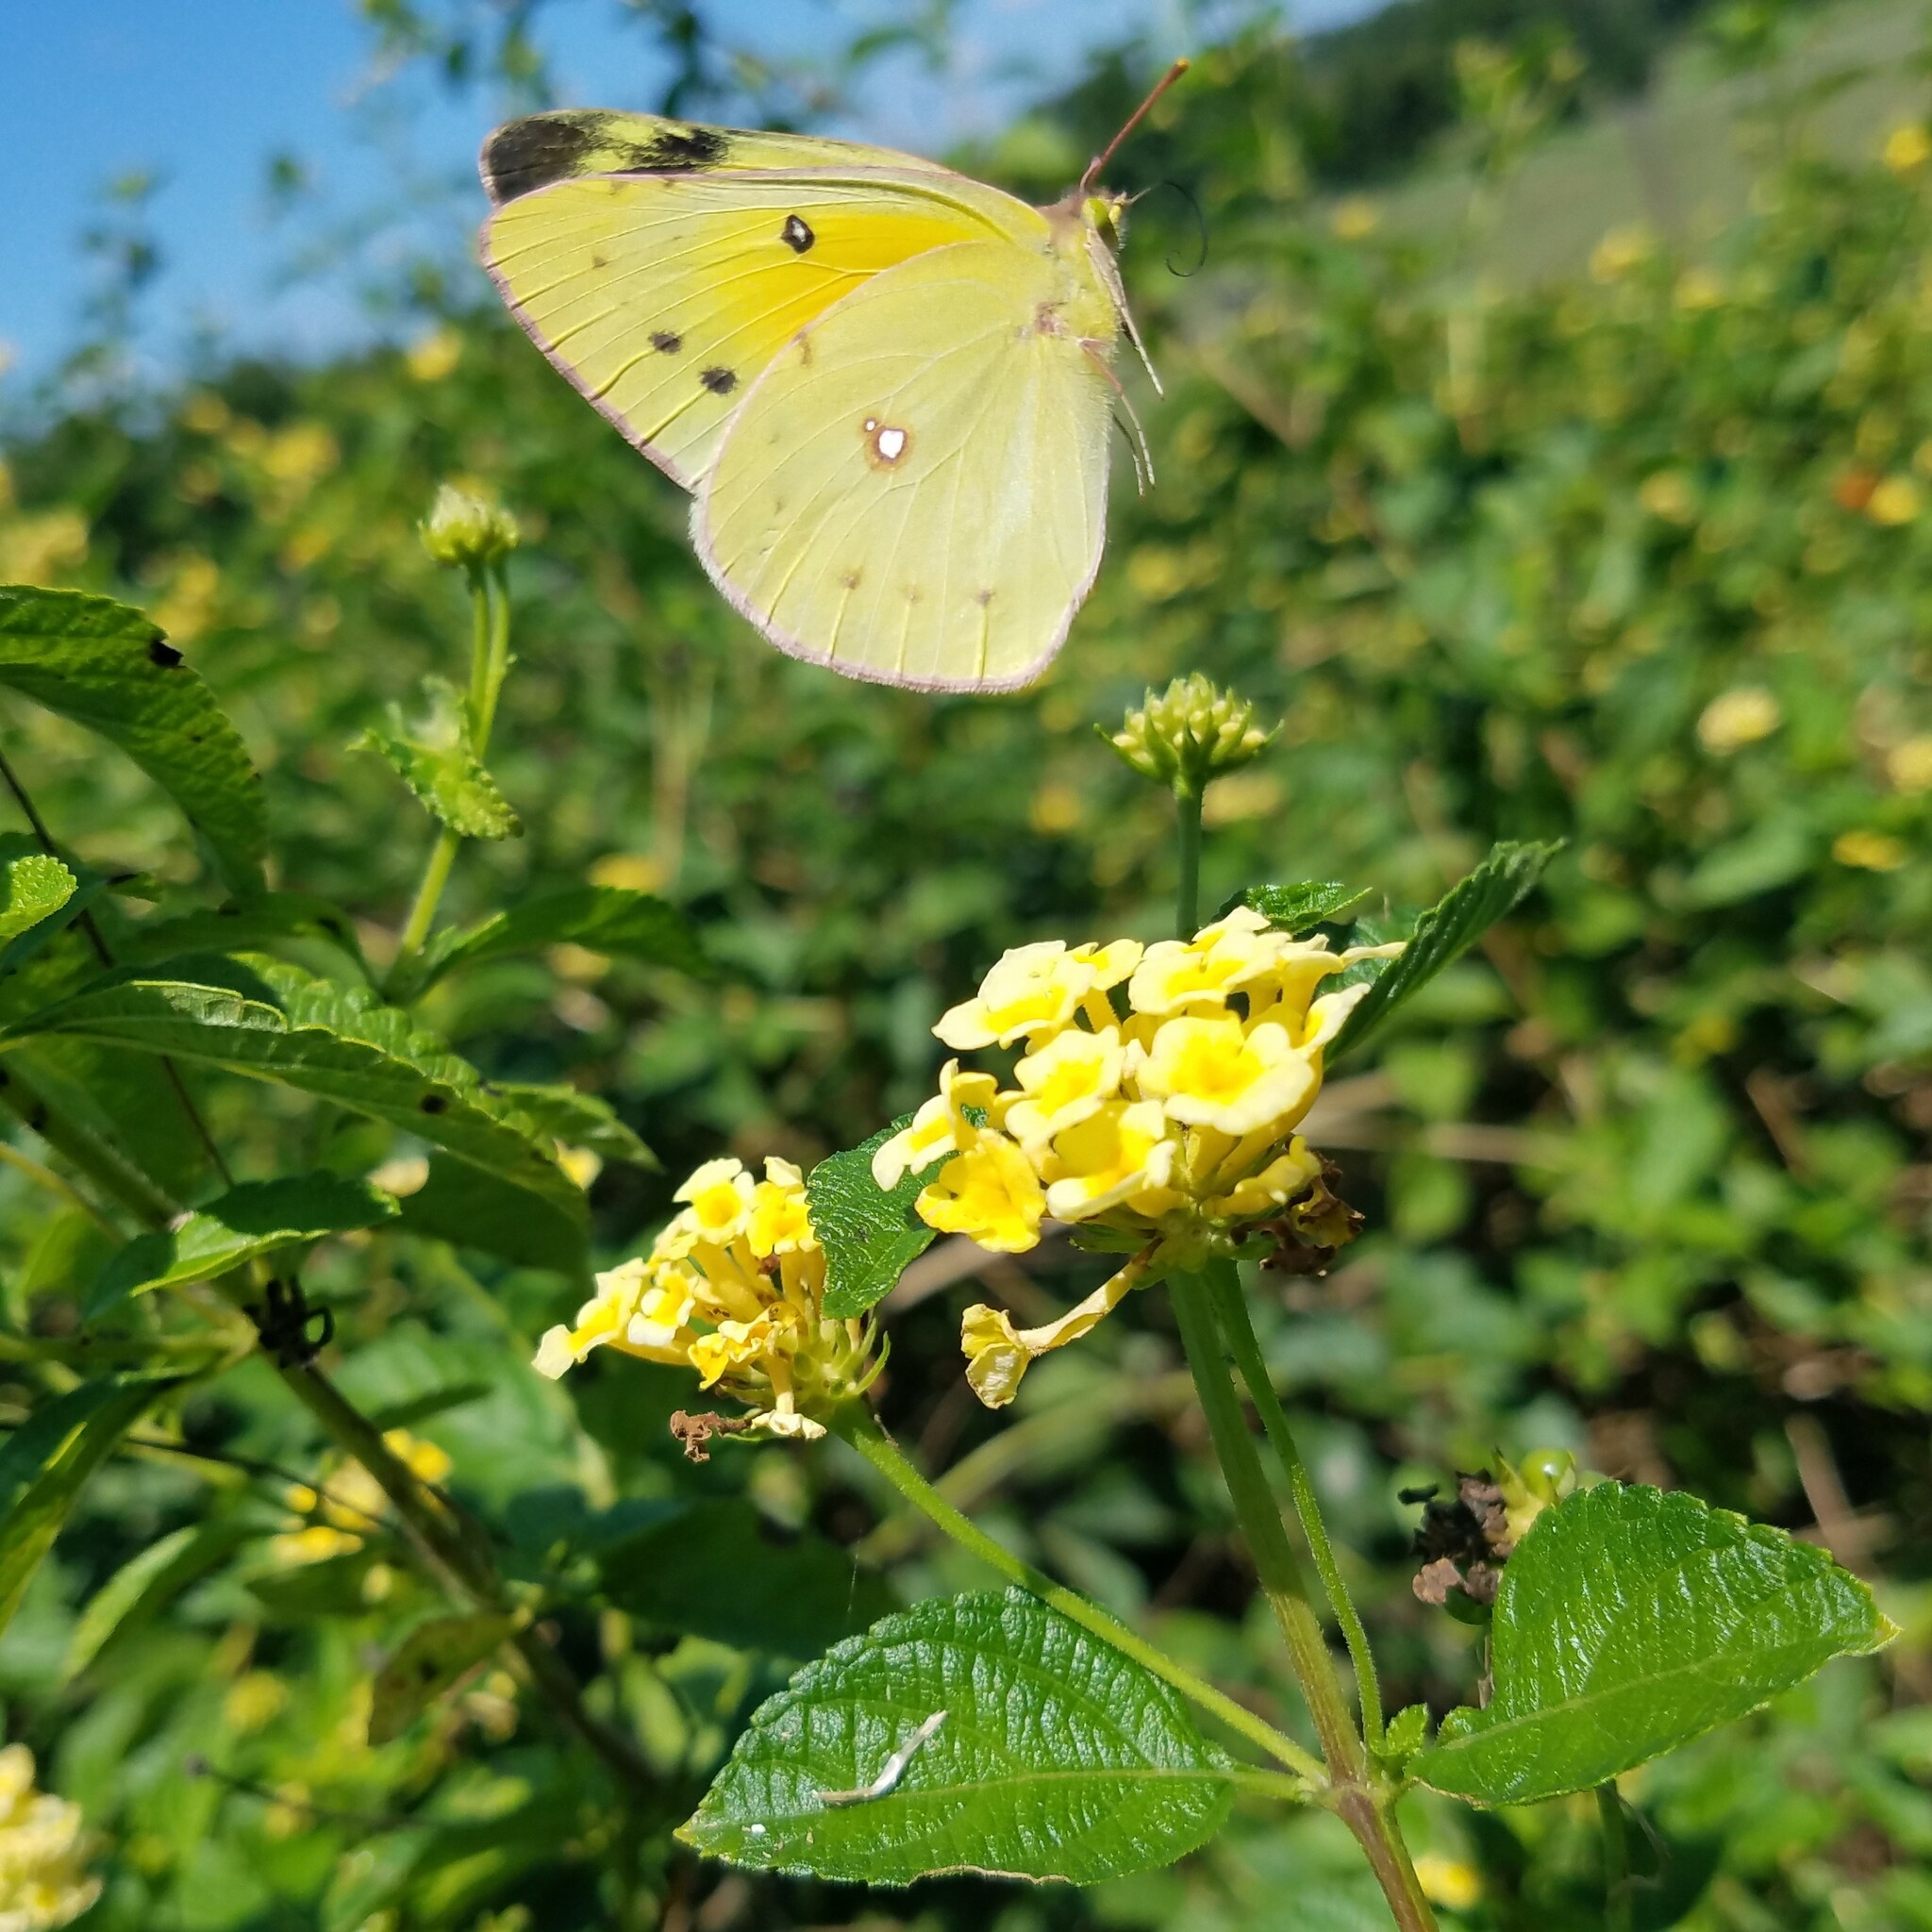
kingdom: Animalia
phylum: Arthropoda
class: Insecta
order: Lepidoptera
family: Pieridae
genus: Colias
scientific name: Colias eurytheme
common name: Alfalfa butterfly
